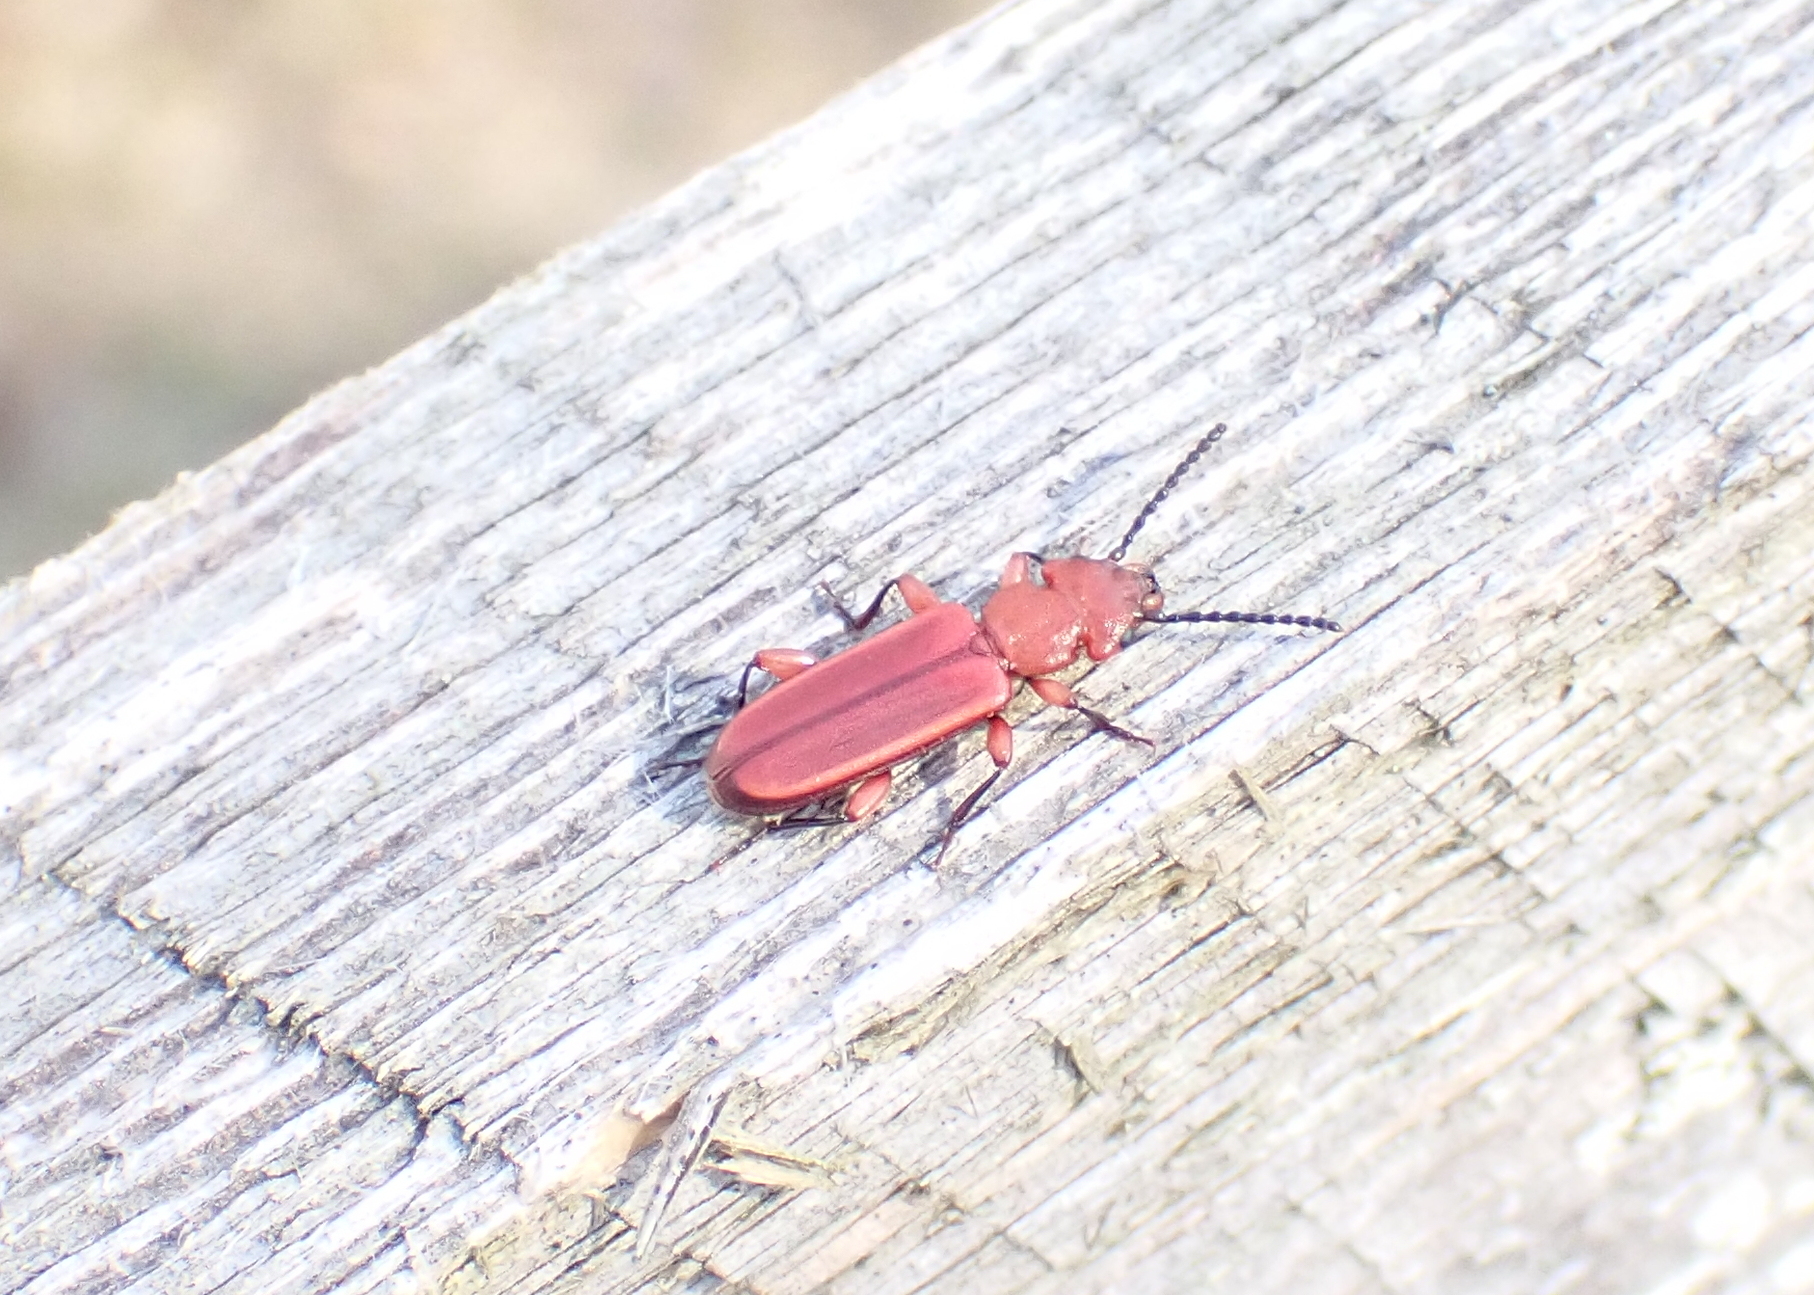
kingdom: Animalia
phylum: Arthropoda
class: Insecta
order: Coleoptera
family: Cucujidae
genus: Cucujus
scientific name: Cucujus clavipes
